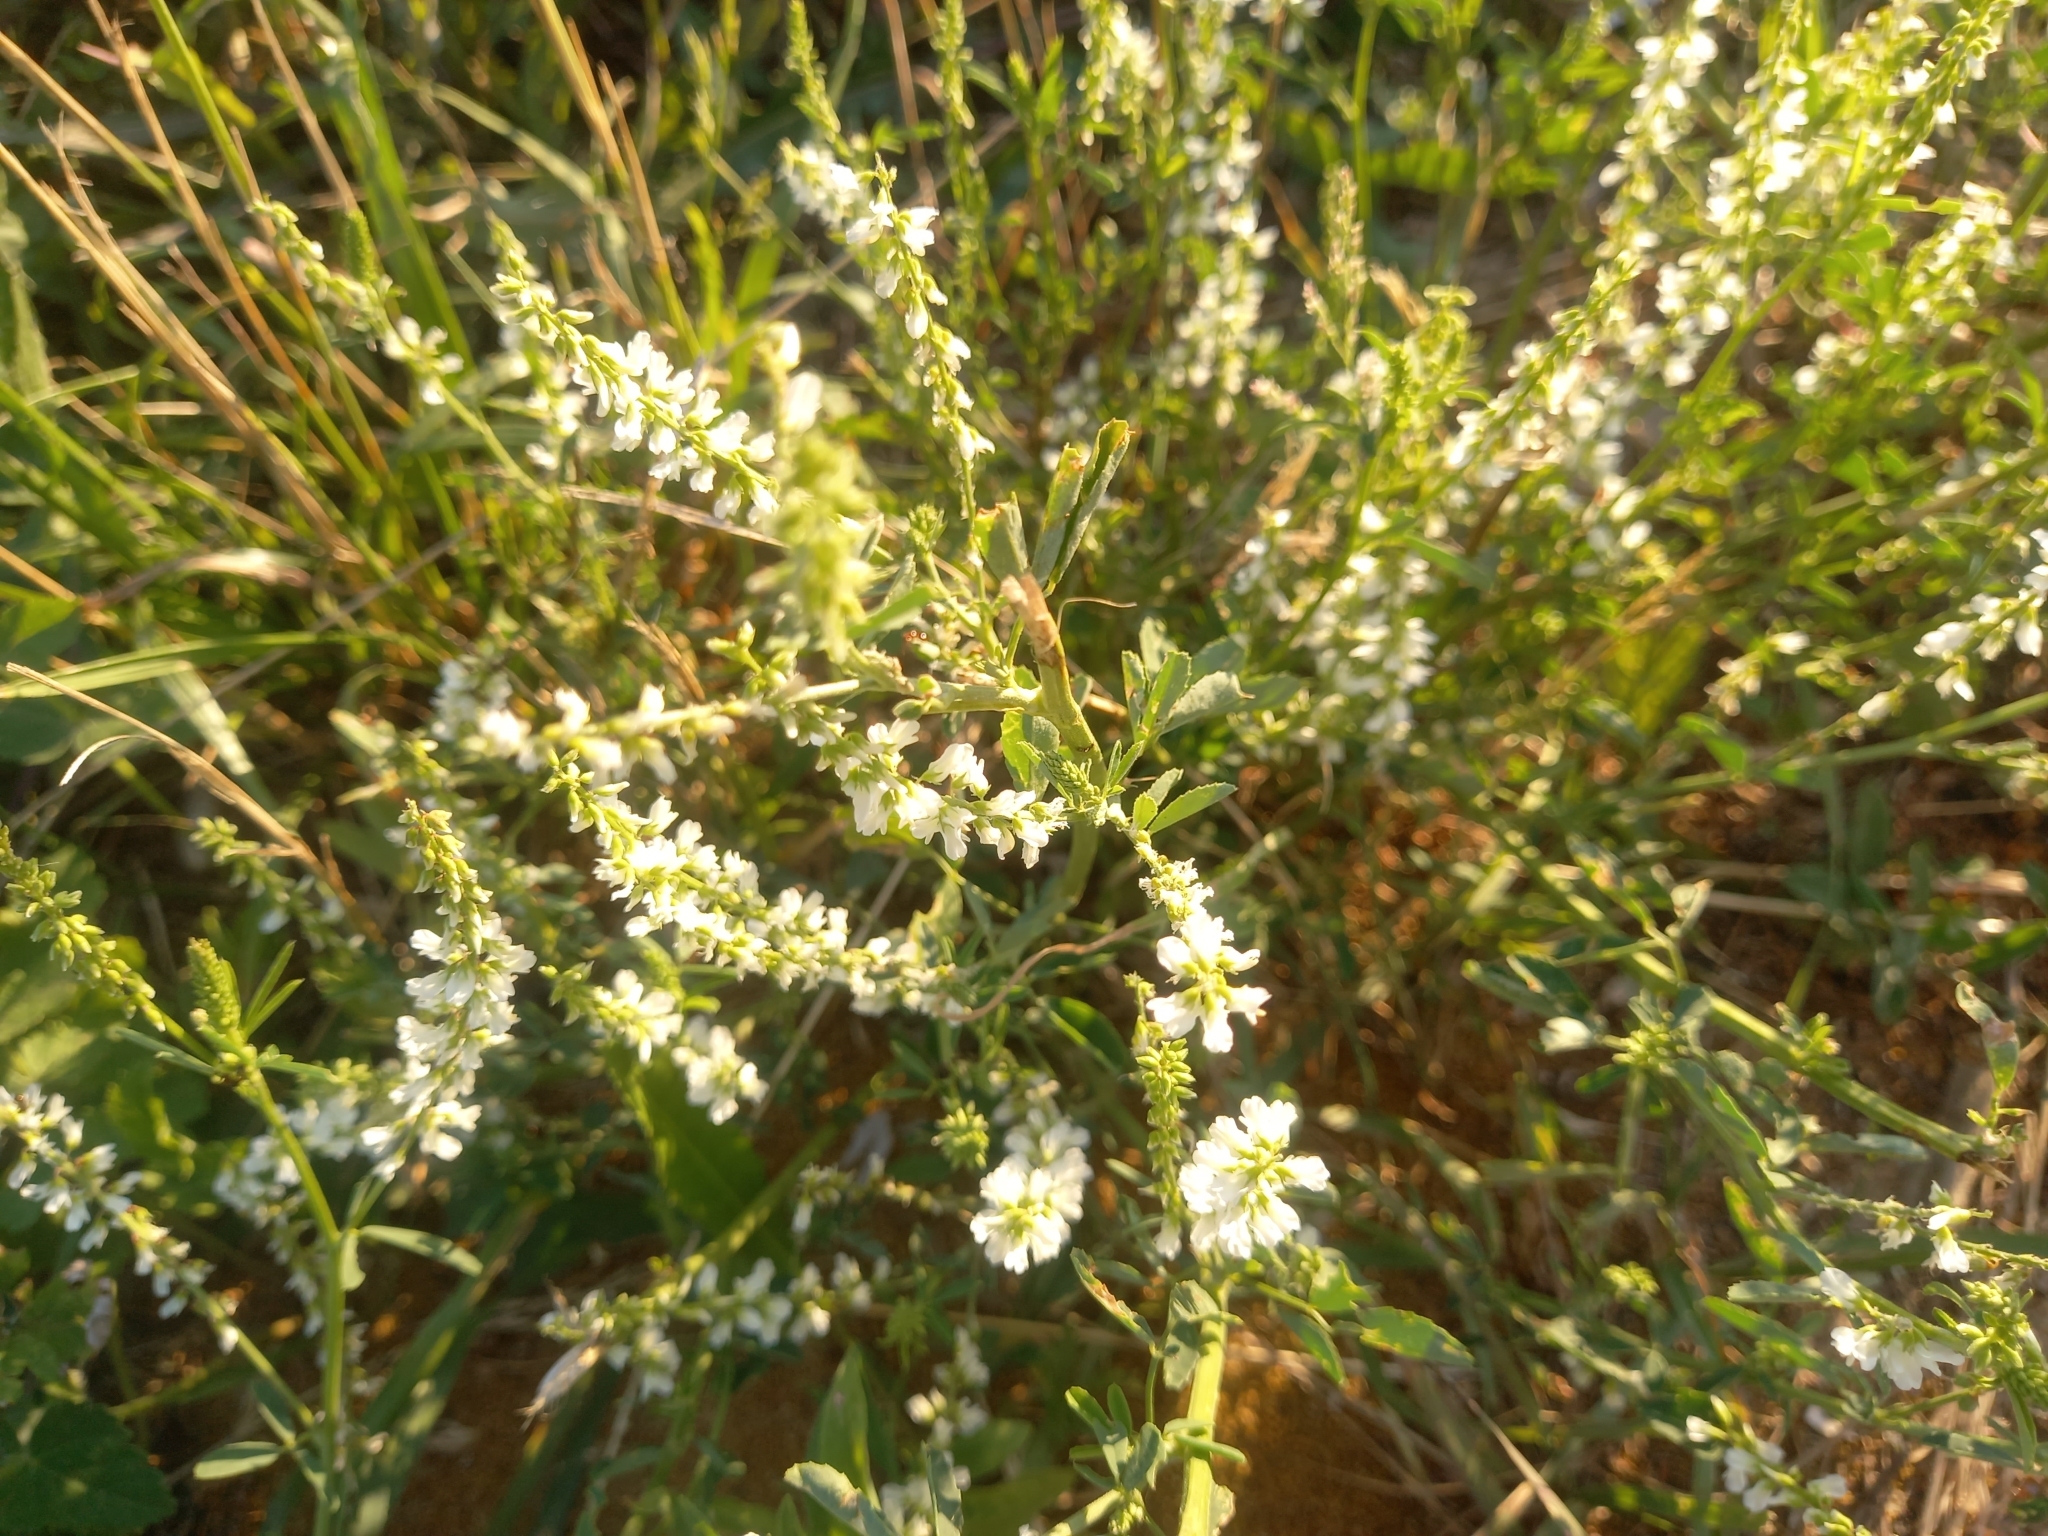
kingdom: Plantae
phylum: Tracheophyta
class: Magnoliopsida
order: Fabales
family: Fabaceae
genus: Melilotus
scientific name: Melilotus albus
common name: White melilot
